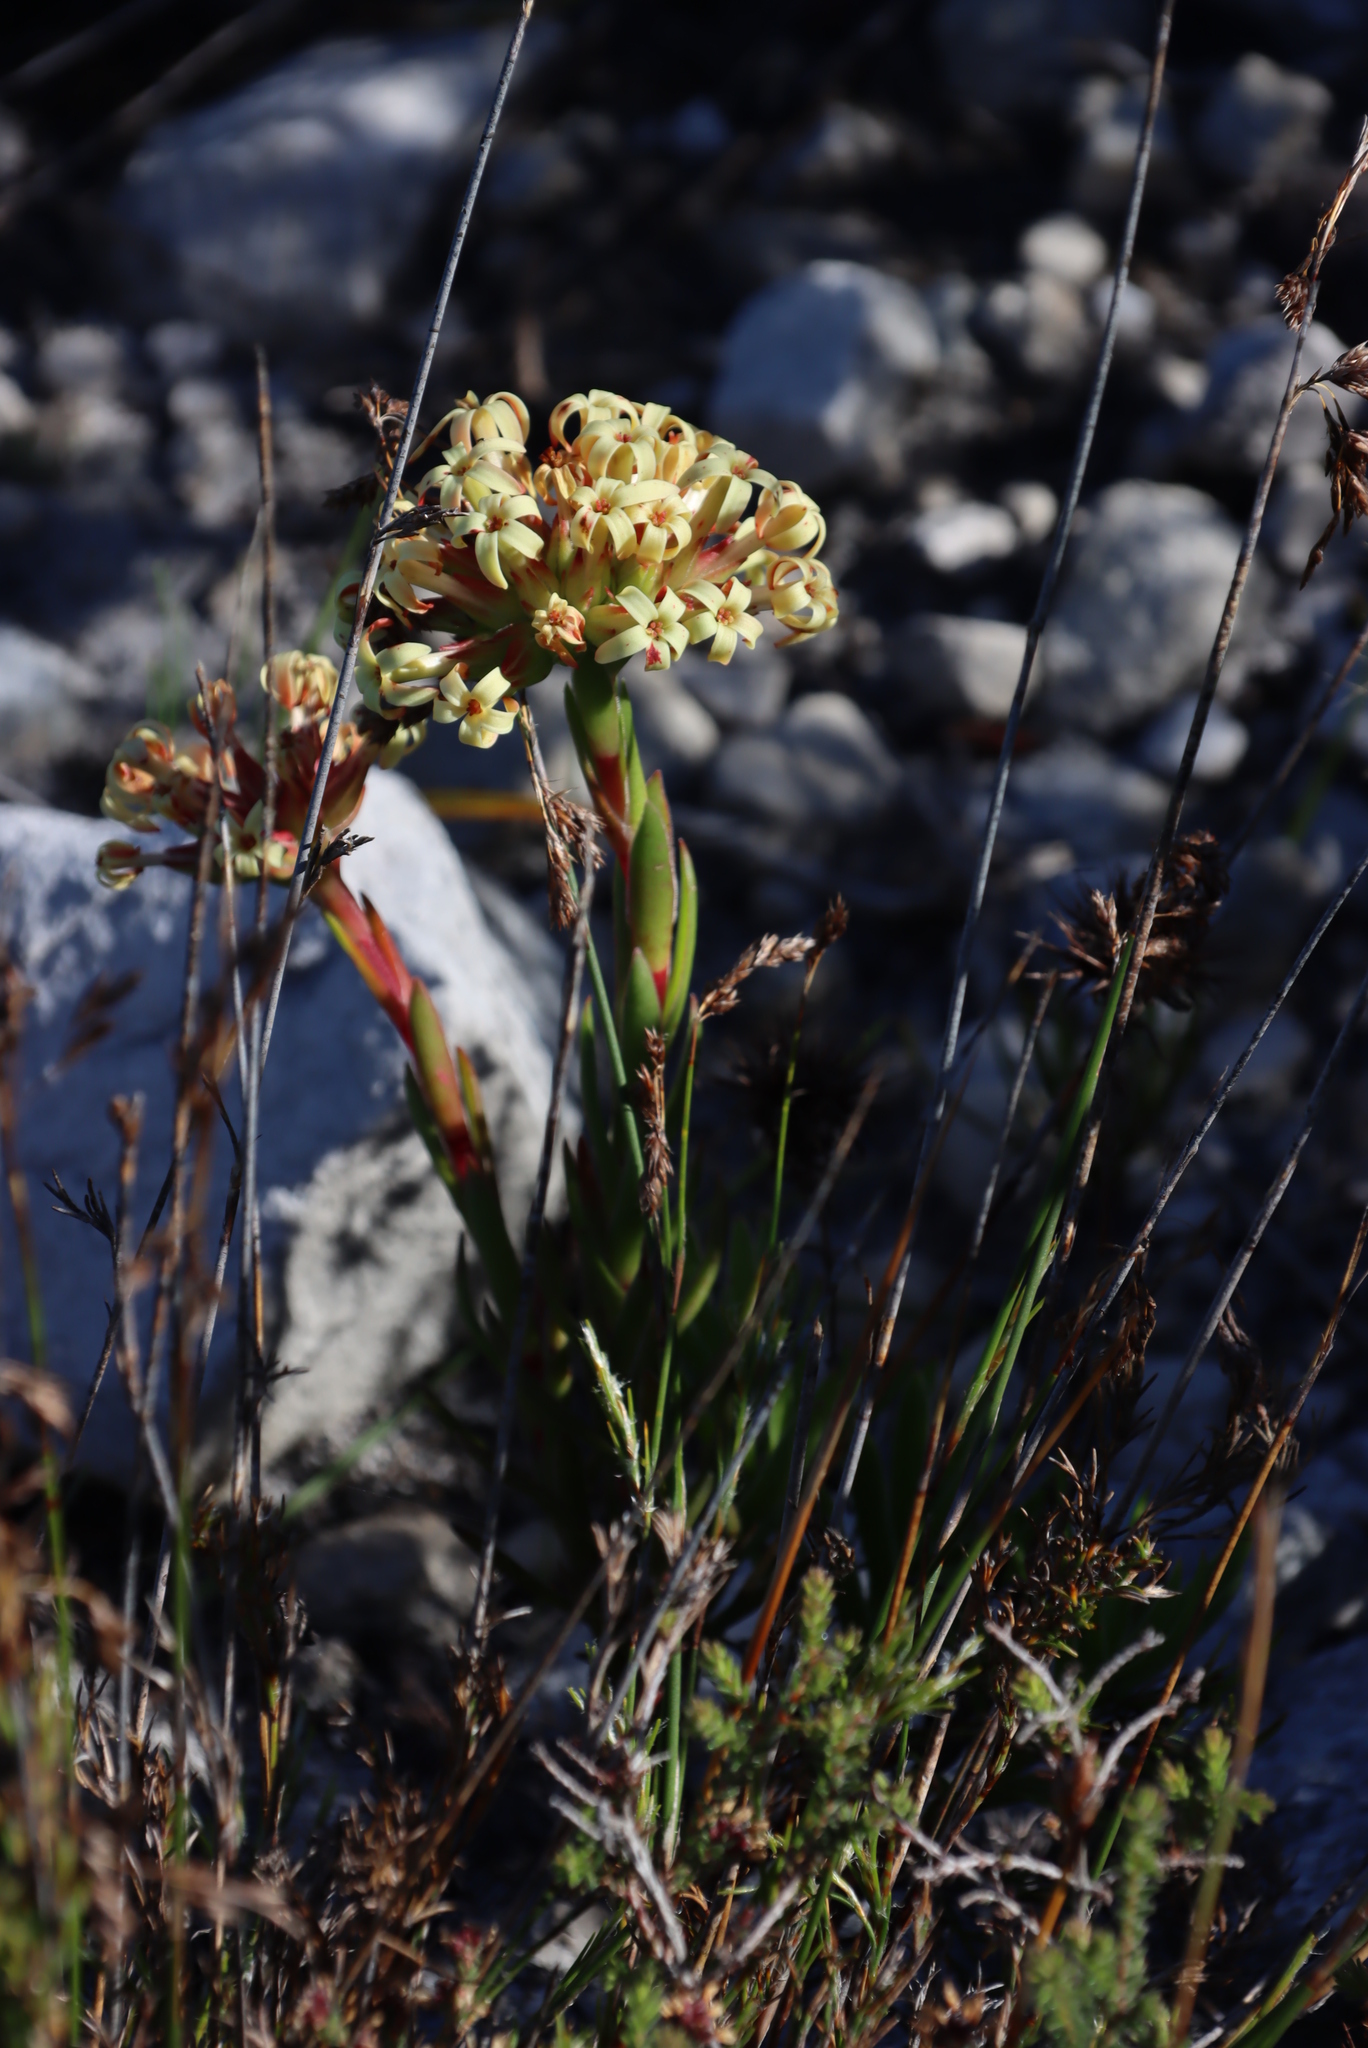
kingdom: Plantae
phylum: Tracheophyta
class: Magnoliopsida
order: Saxifragales
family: Crassulaceae
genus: Crassula
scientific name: Crassula fascicularis
